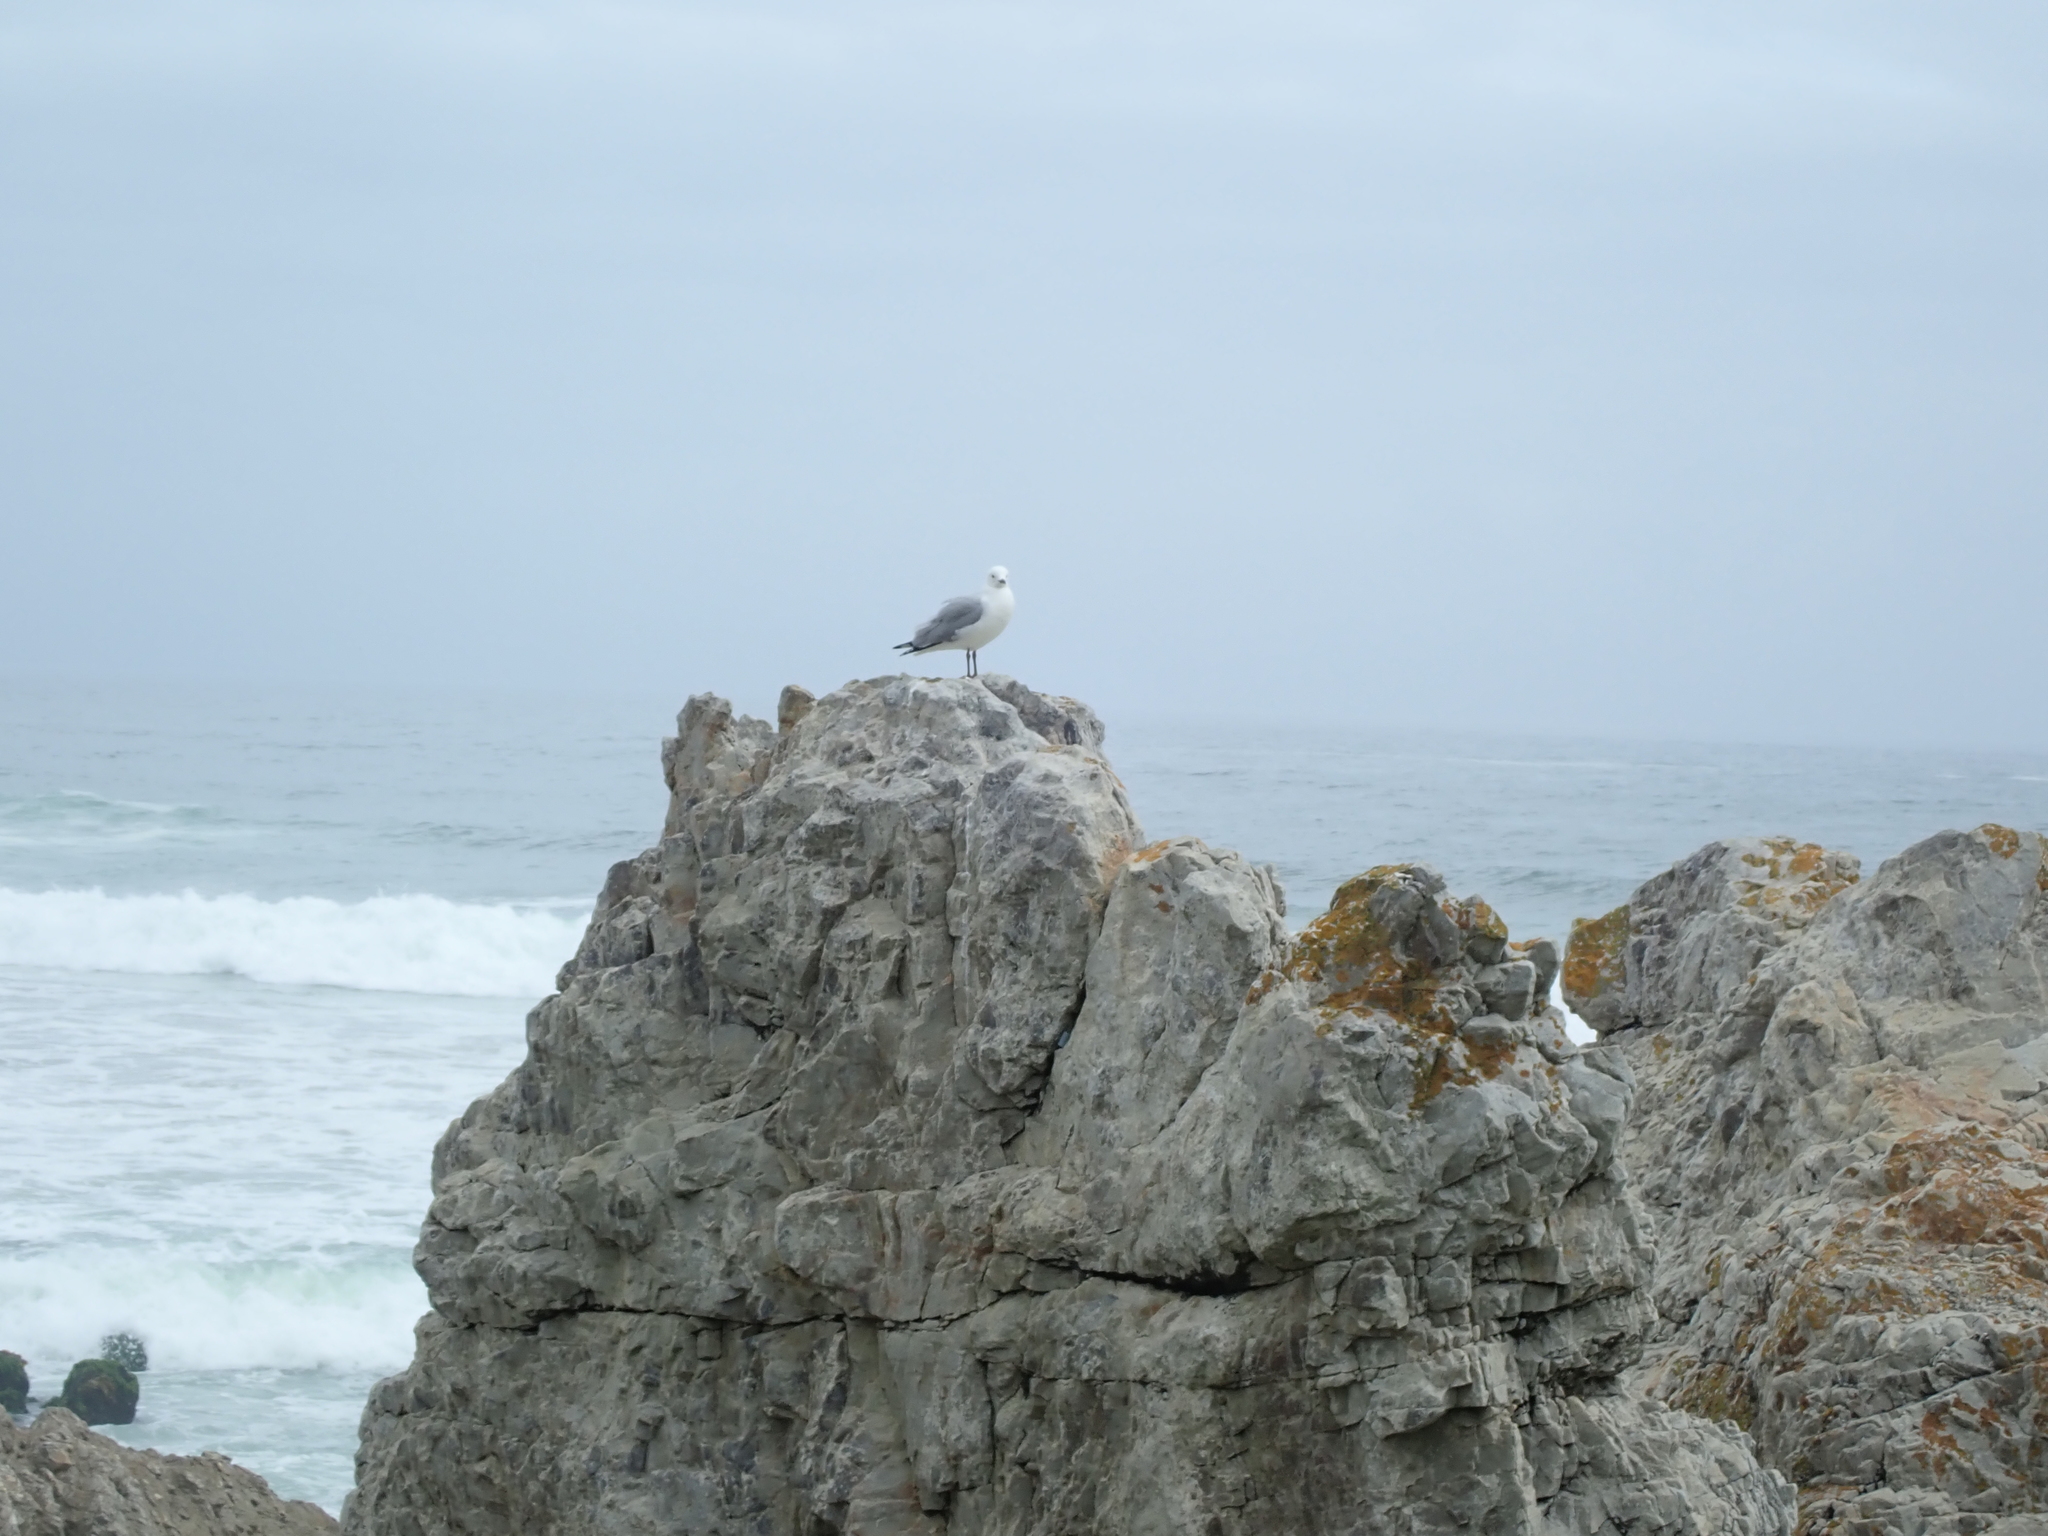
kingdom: Animalia
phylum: Chordata
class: Aves
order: Charadriiformes
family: Laridae
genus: Chroicocephalus
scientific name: Chroicocephalus hartlaubii
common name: Hartlaub's gull
